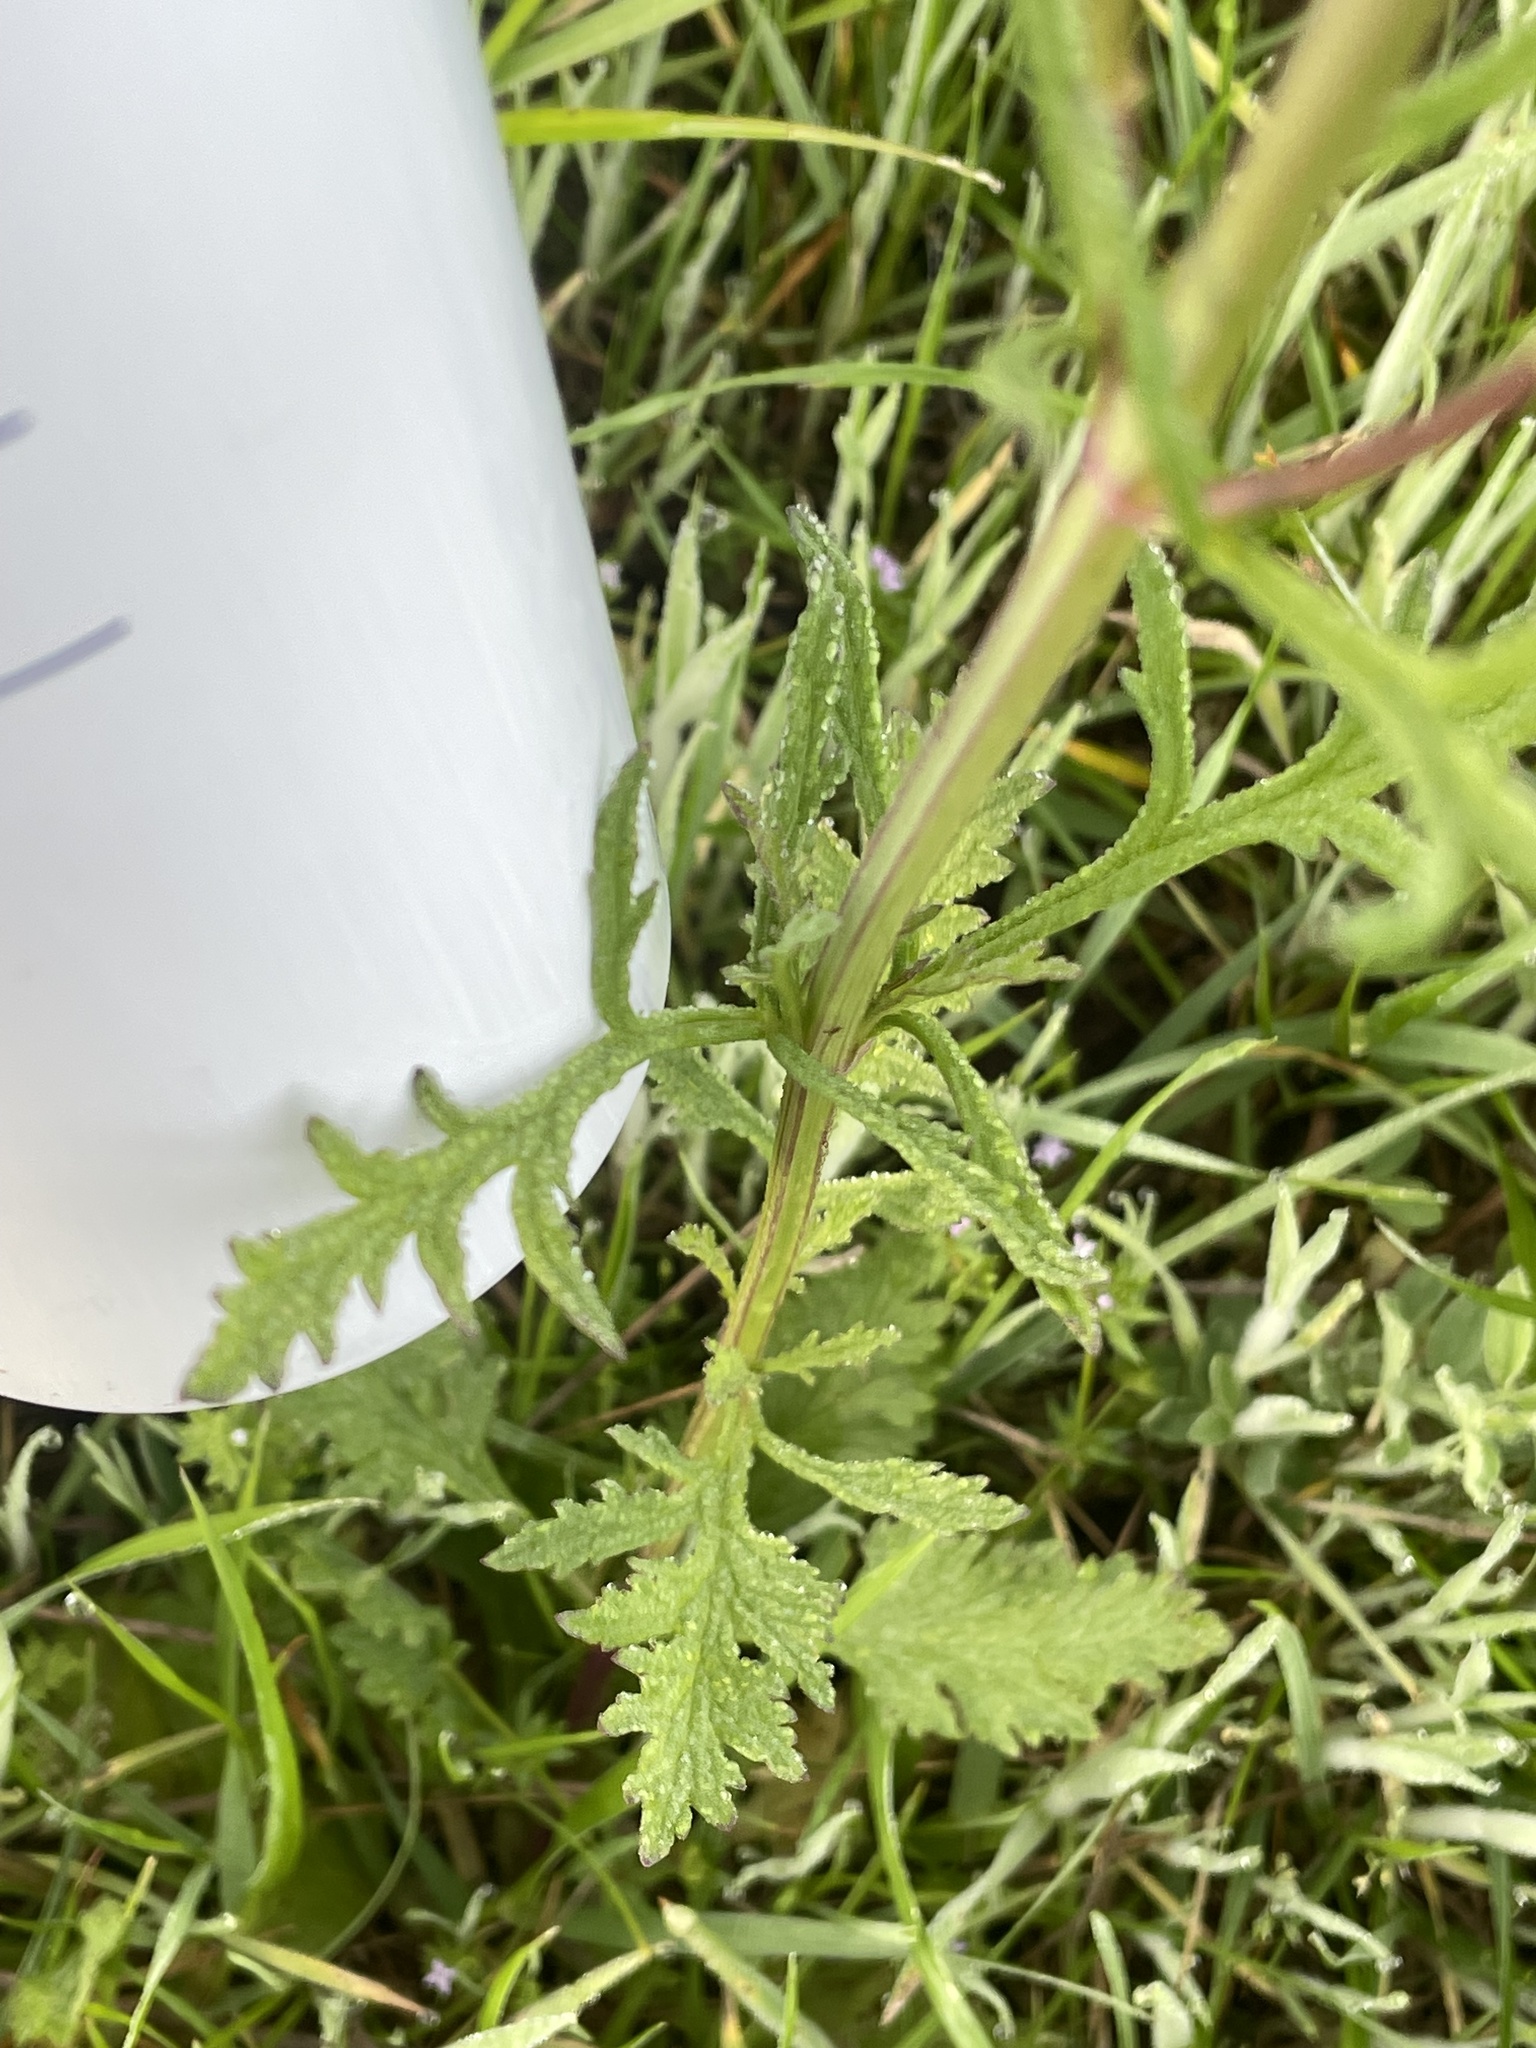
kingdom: Plantae
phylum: Tracheophyta
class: Magnoliopsida
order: Lamiales
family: Verbenaceae
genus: Verbena
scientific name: Verbena halei
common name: Texas vervain
